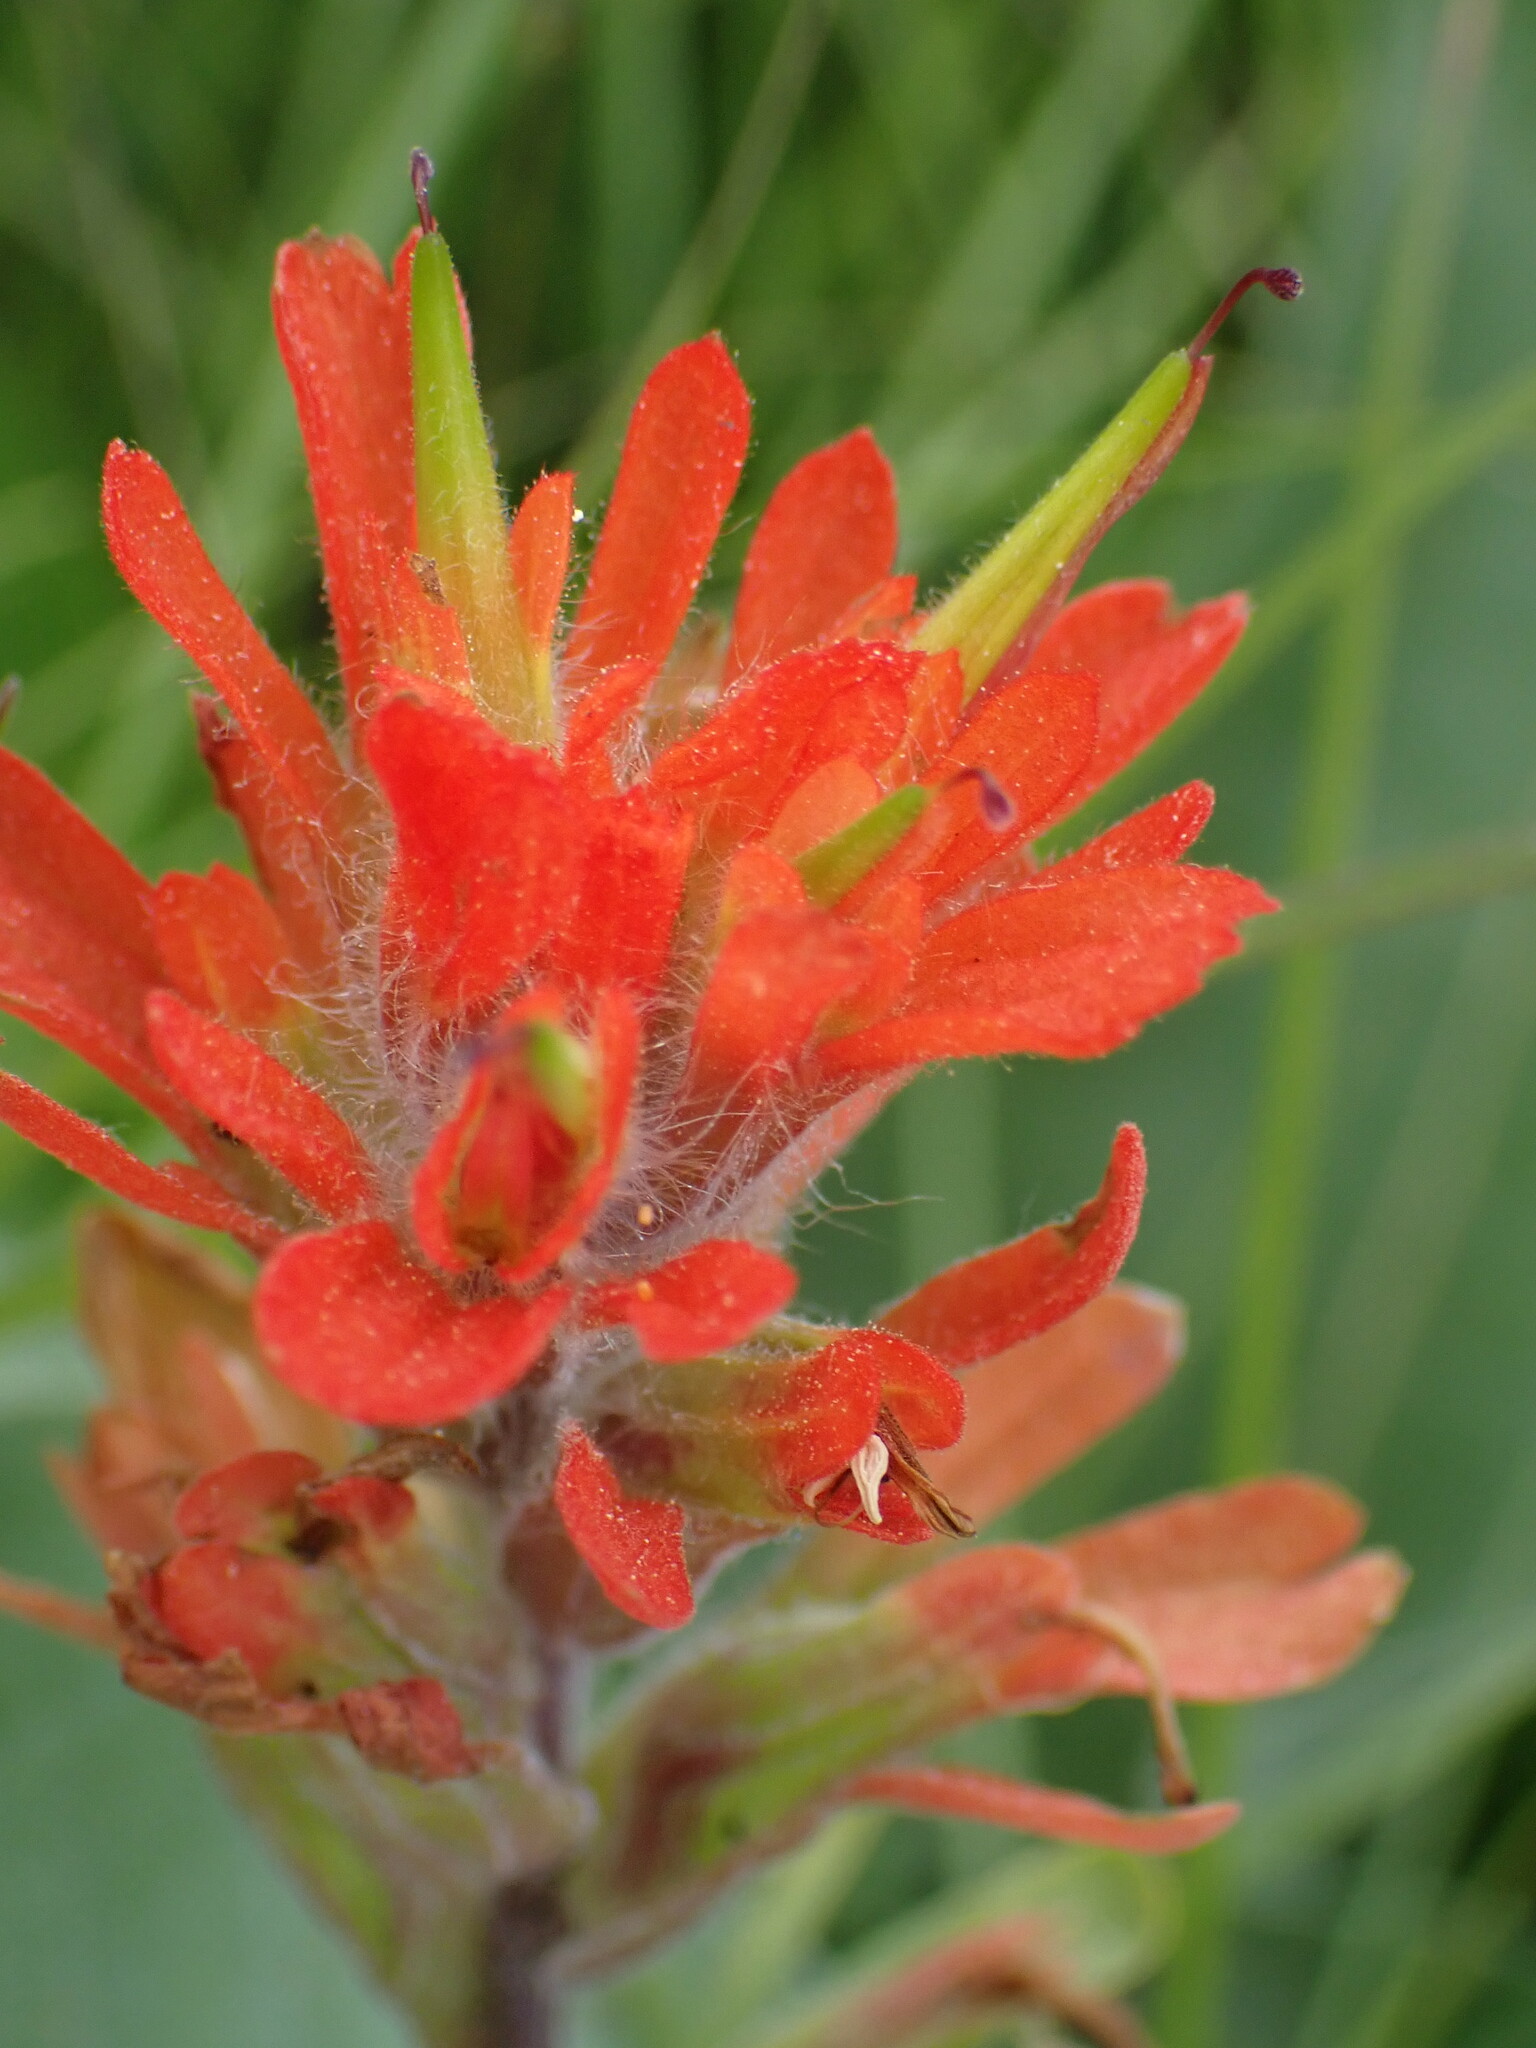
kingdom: Plantae
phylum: Tracheophyta
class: Magnoliopsida
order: Lamiales
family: Orobanchaceae
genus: Castilleja
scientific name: Castilleja hispida
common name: Bristly paintbrush
